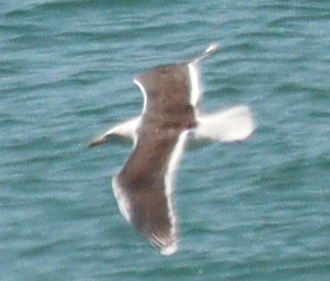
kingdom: Animalia
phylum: Chordata
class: Aves
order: Charadriiformes
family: Laridae
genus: Larus
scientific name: Larus marinus
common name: Great black-backed gull
